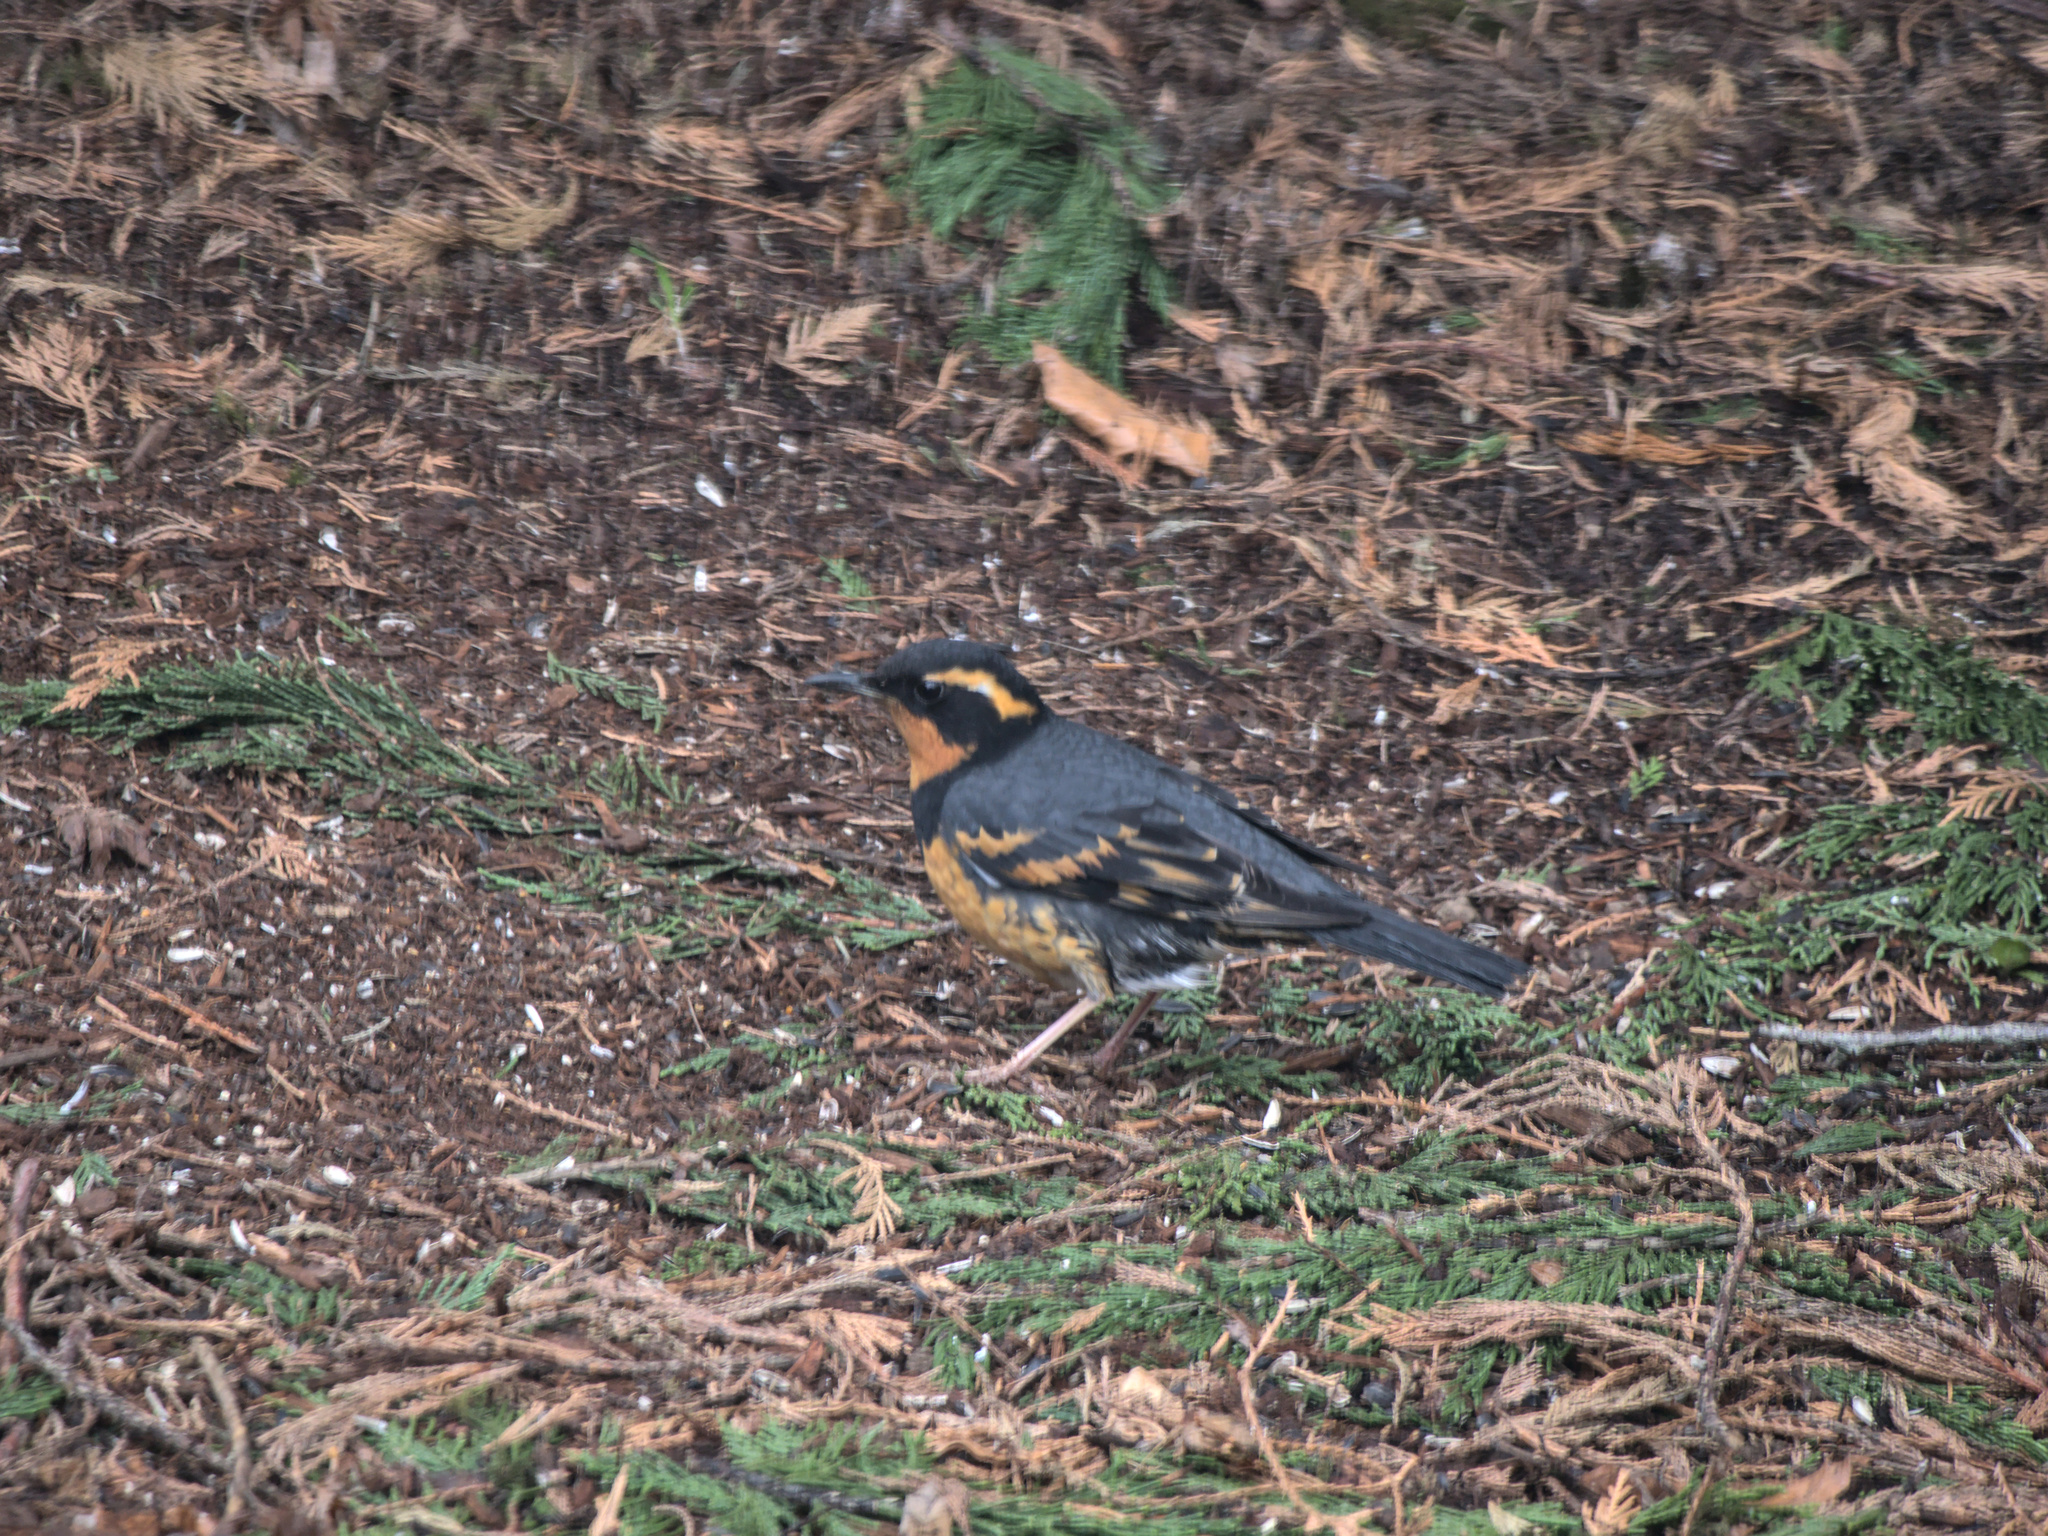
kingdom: Animalia
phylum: Chordata
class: Aves
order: Passeriformes
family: Turdidae
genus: Ixoreus
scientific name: Ixoreus naevius
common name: Varied thrush
